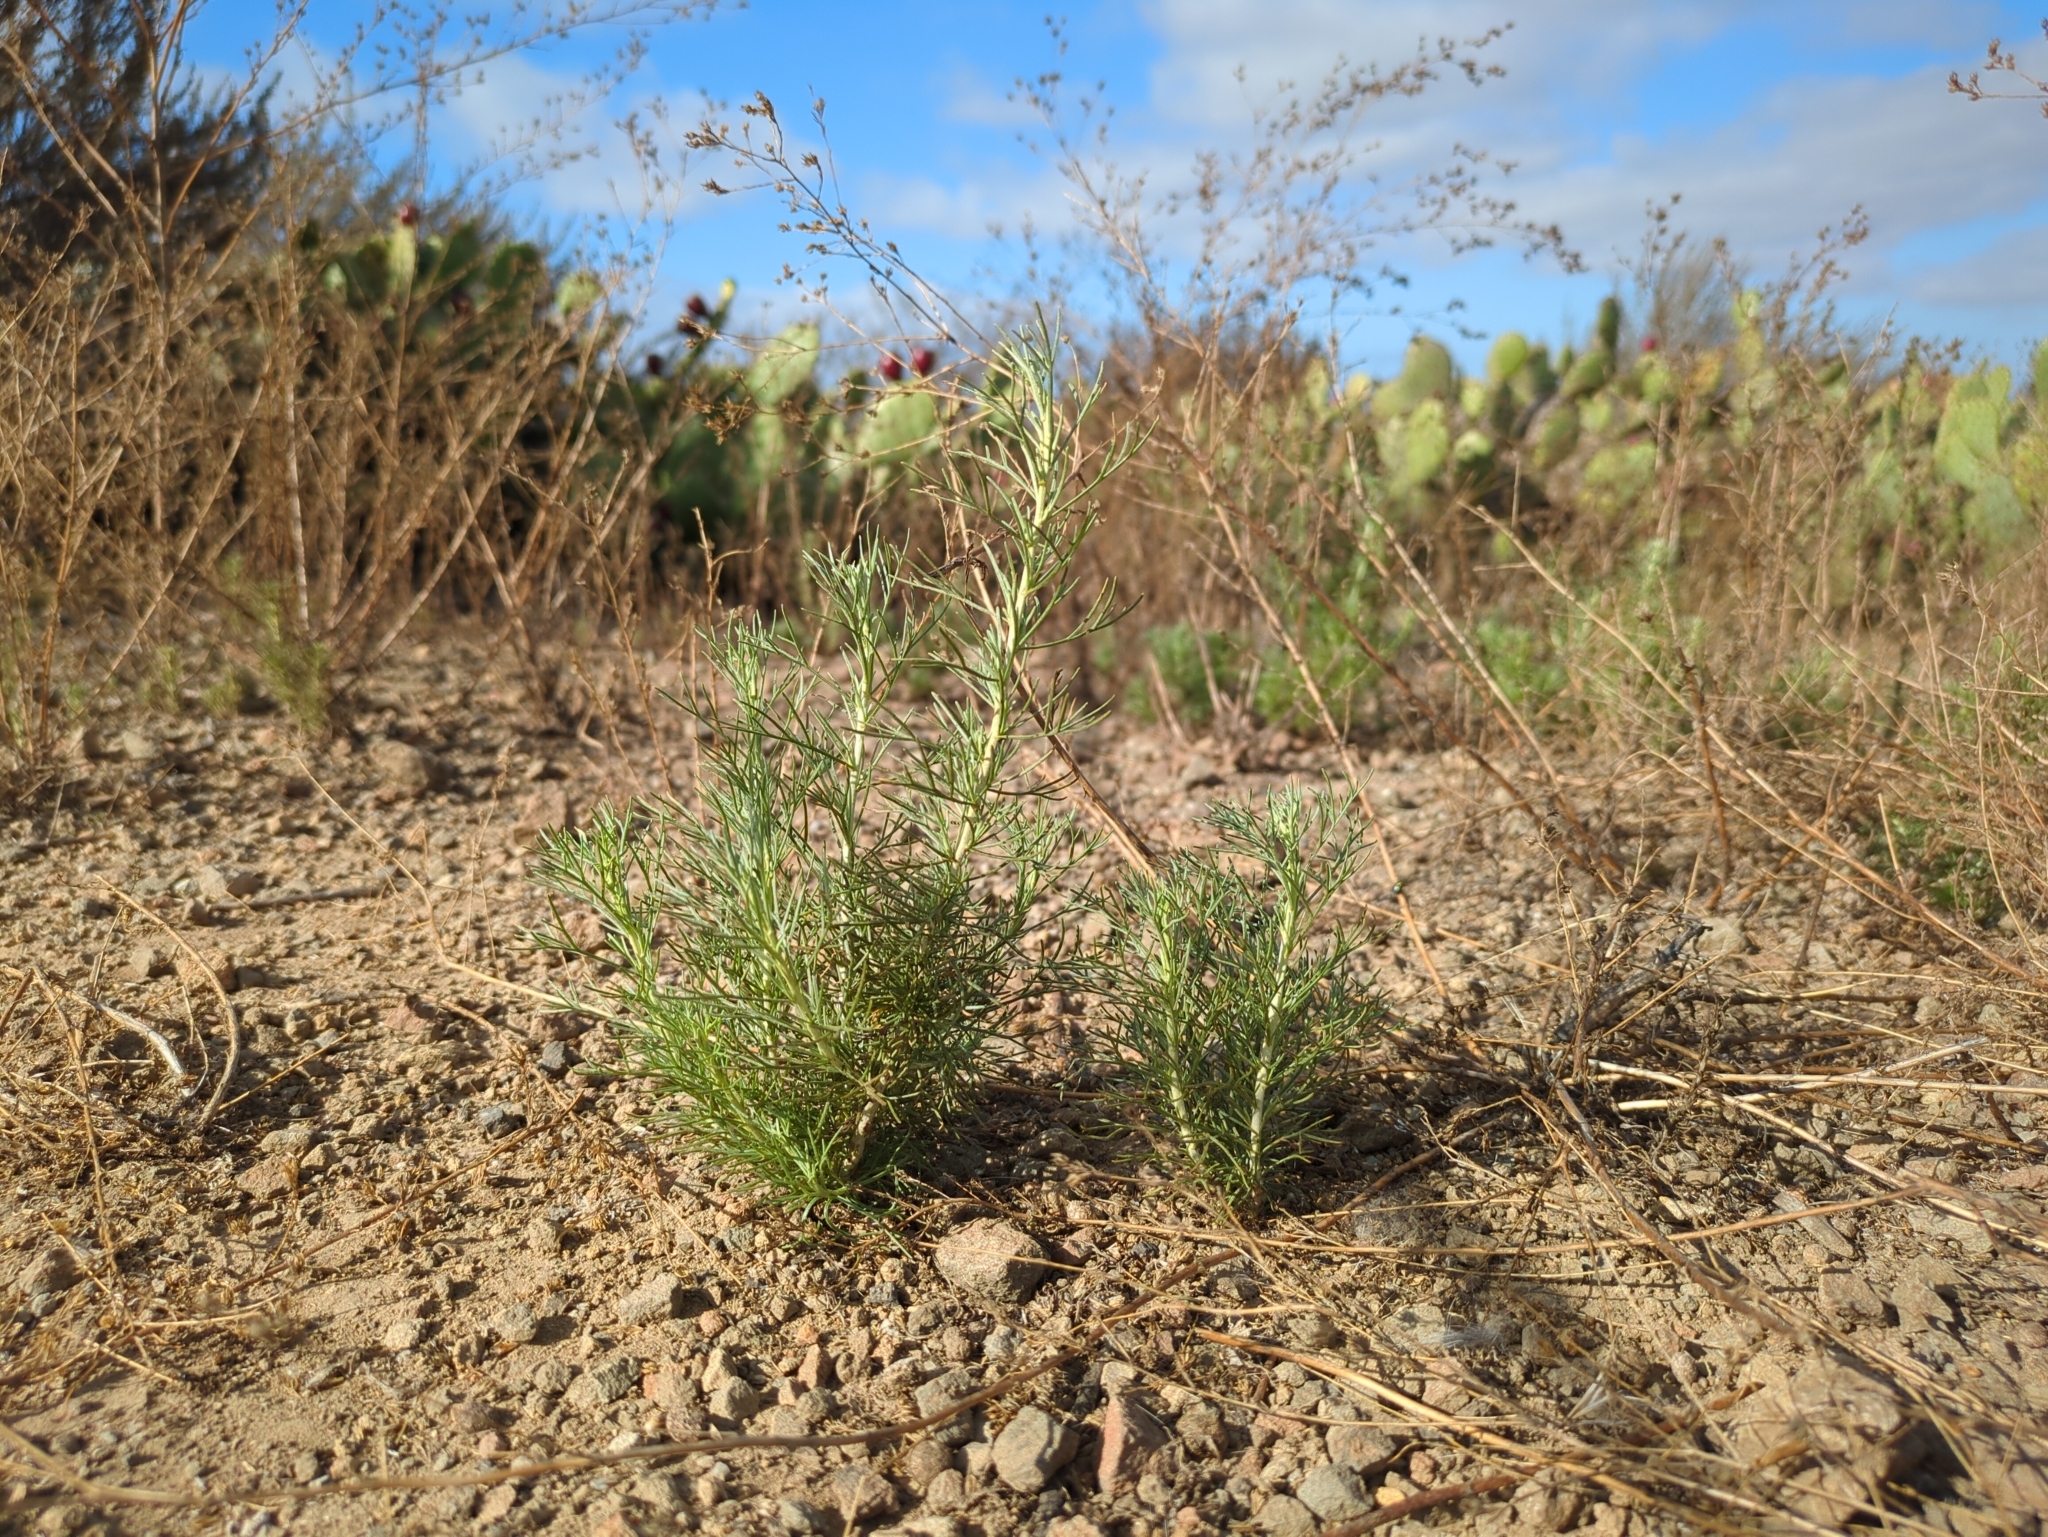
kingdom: Plantae
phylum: Tracheophyta
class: Magnoliopsida
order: Asterales
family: Asteraceae
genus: Artemisia
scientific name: Artemisia californica
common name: California sagebrush
